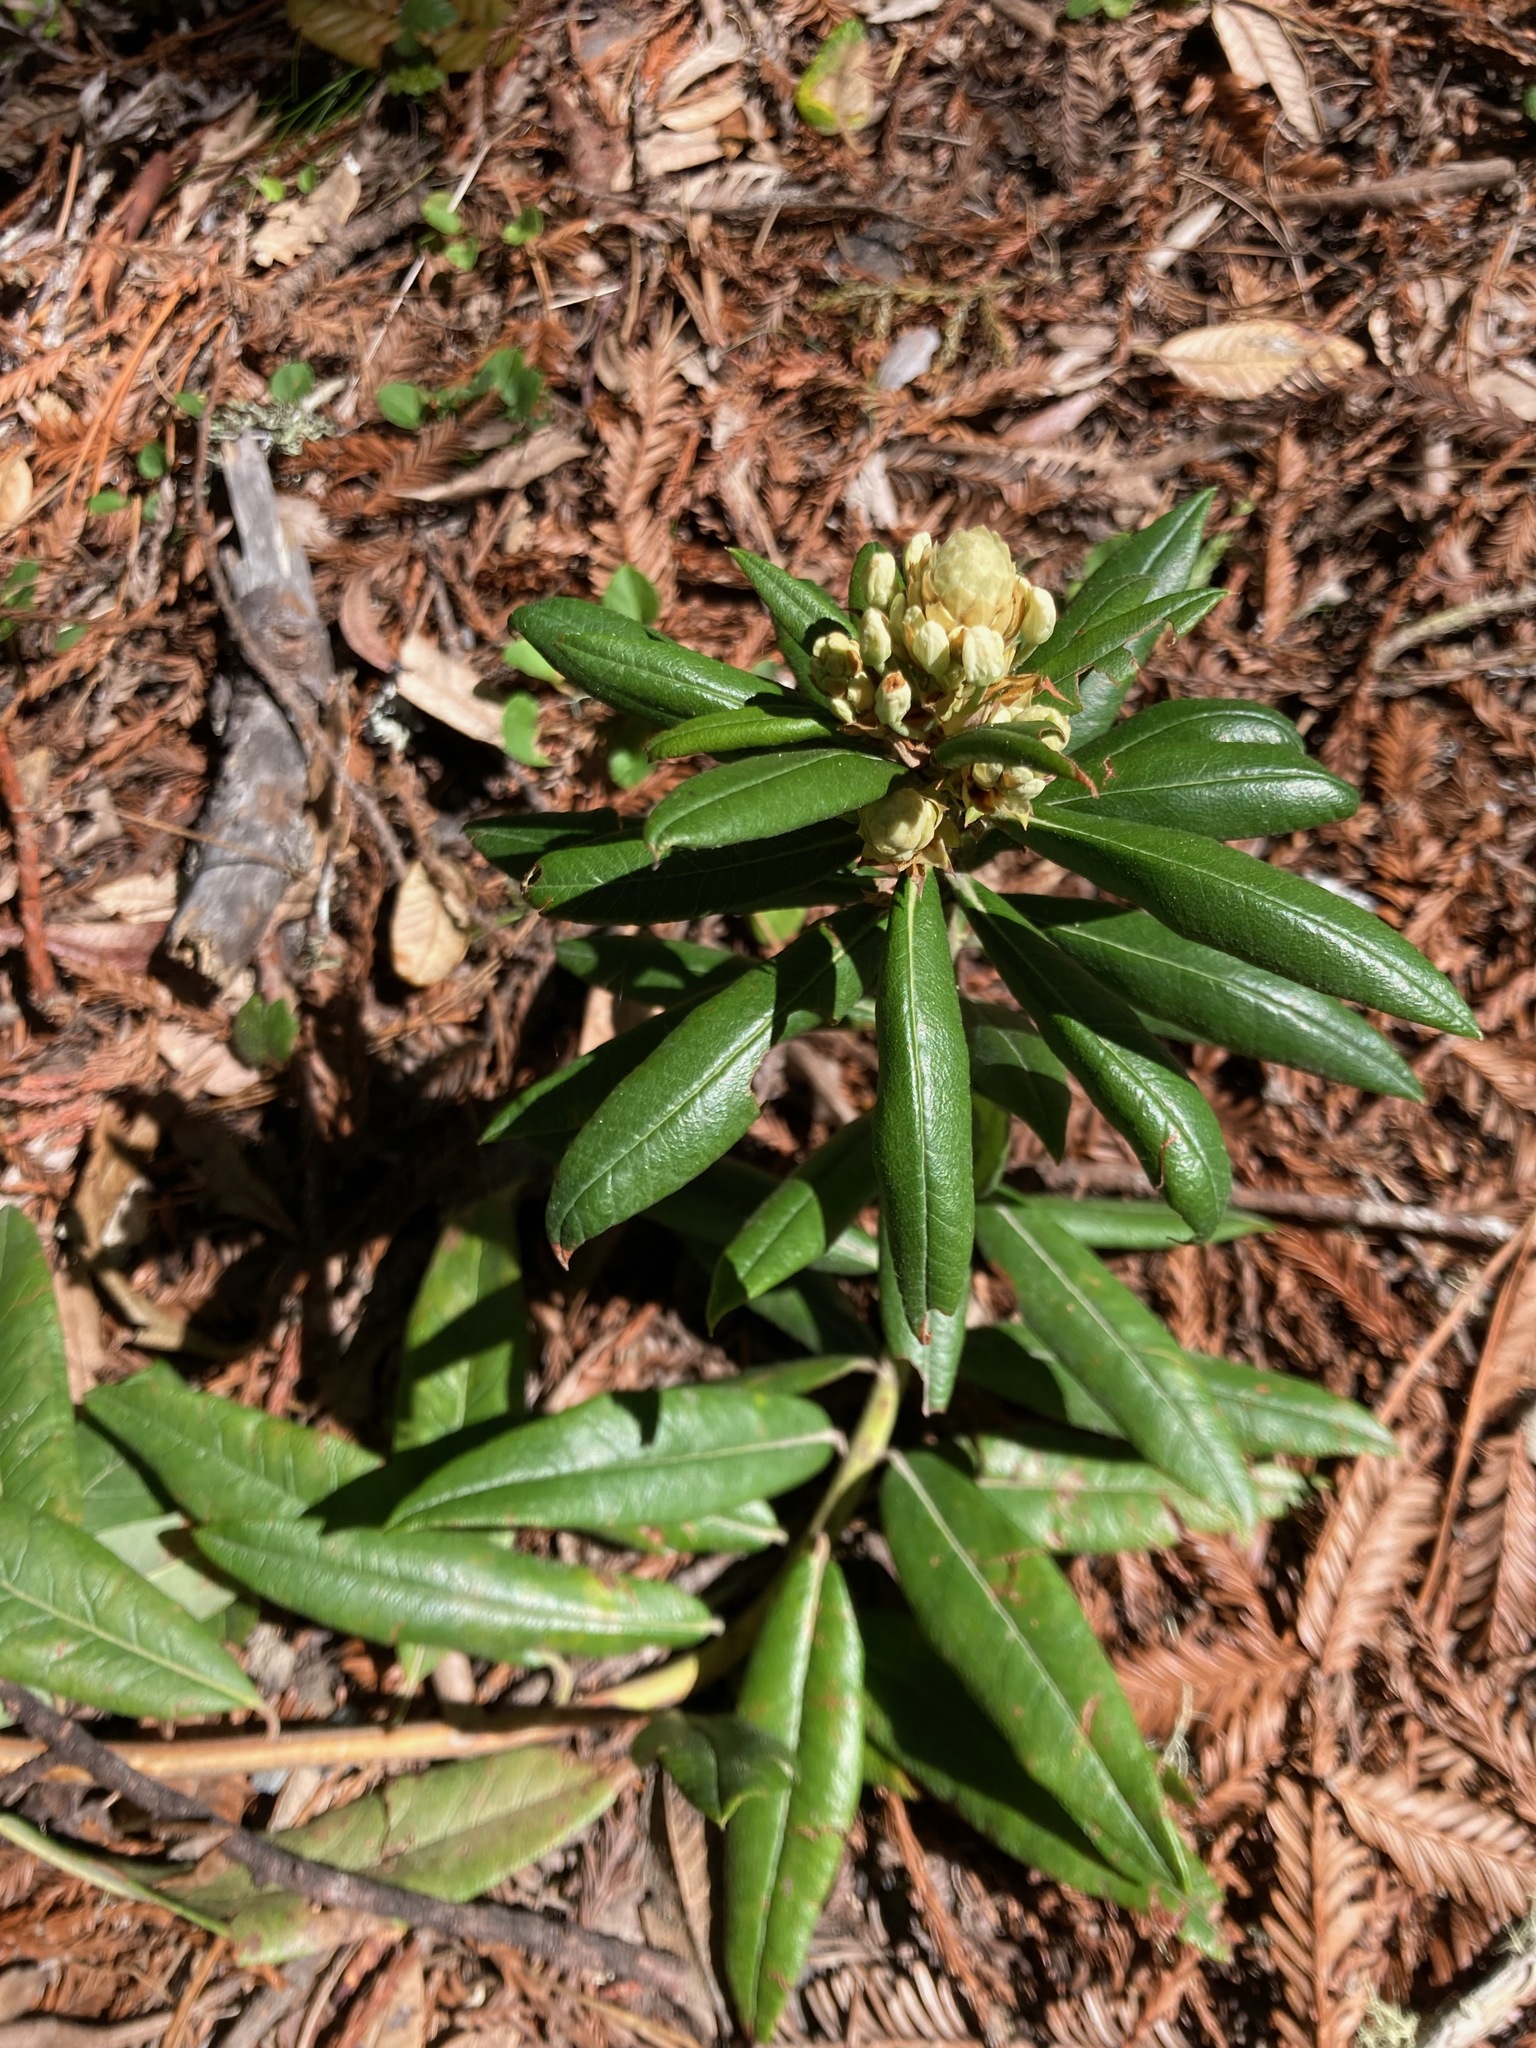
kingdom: Plantae
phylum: Tracheophyta
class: Magnoliopsida
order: Ericales
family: Ericaceae
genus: Rhododendron
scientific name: Rhododendron columbianum
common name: Western labrador tea
